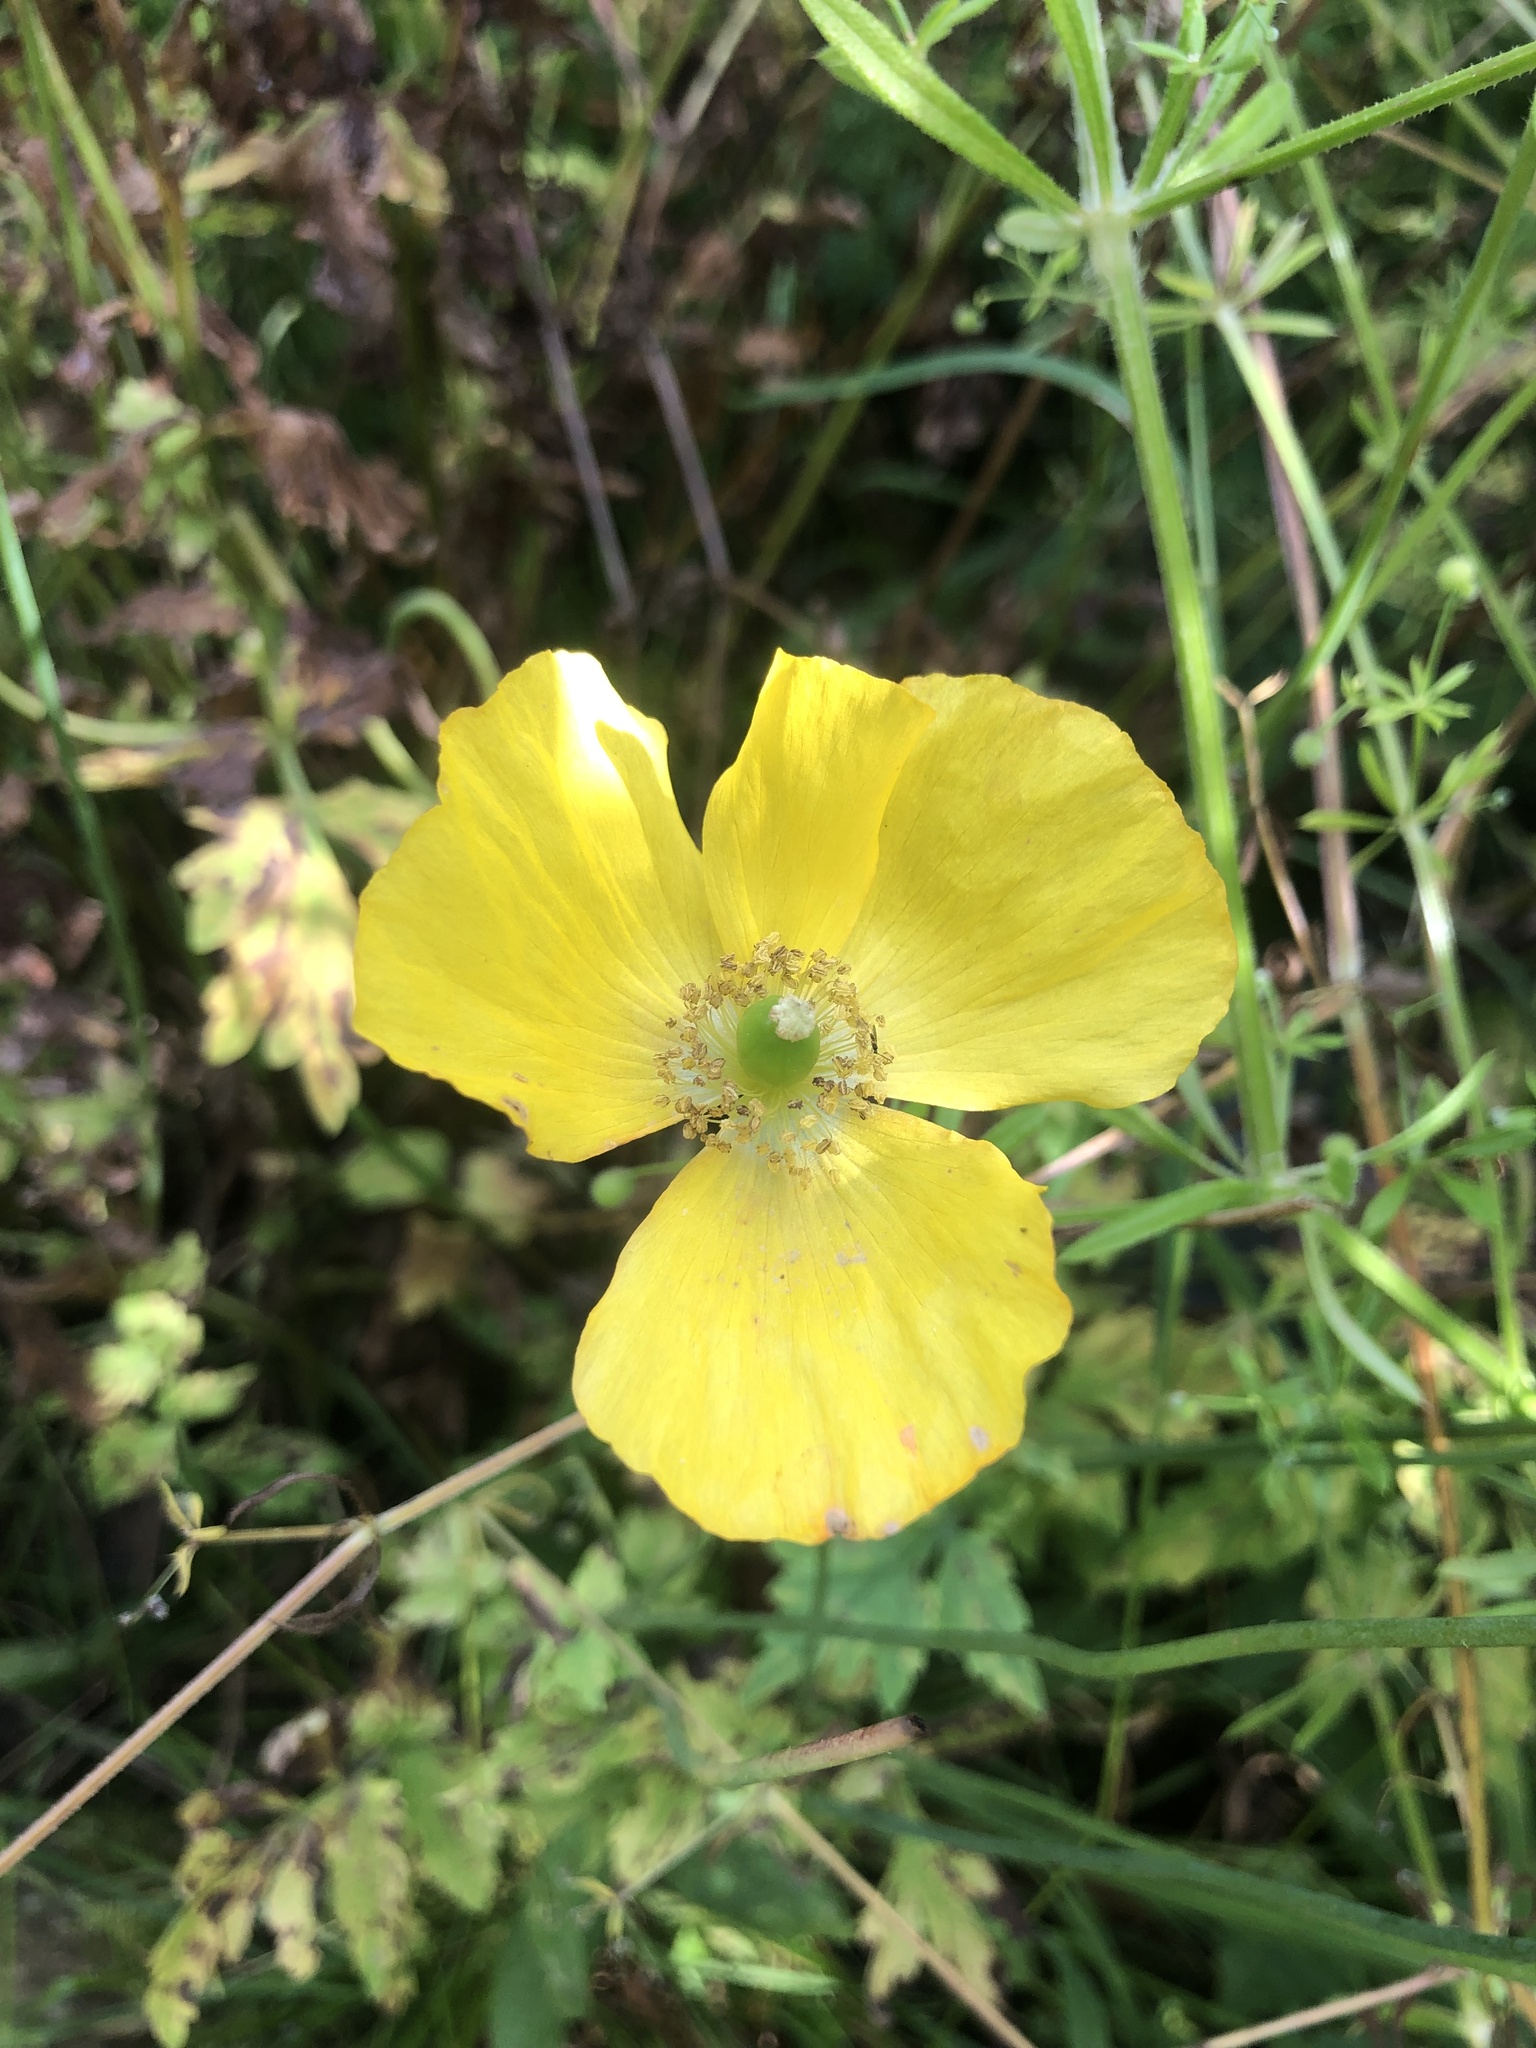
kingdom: Plantae
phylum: Tracheophyta
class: Magnoliopsida
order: Ranunculales
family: Papaveraceae
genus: Papaver
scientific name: Papaver cambricum
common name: Poppy
